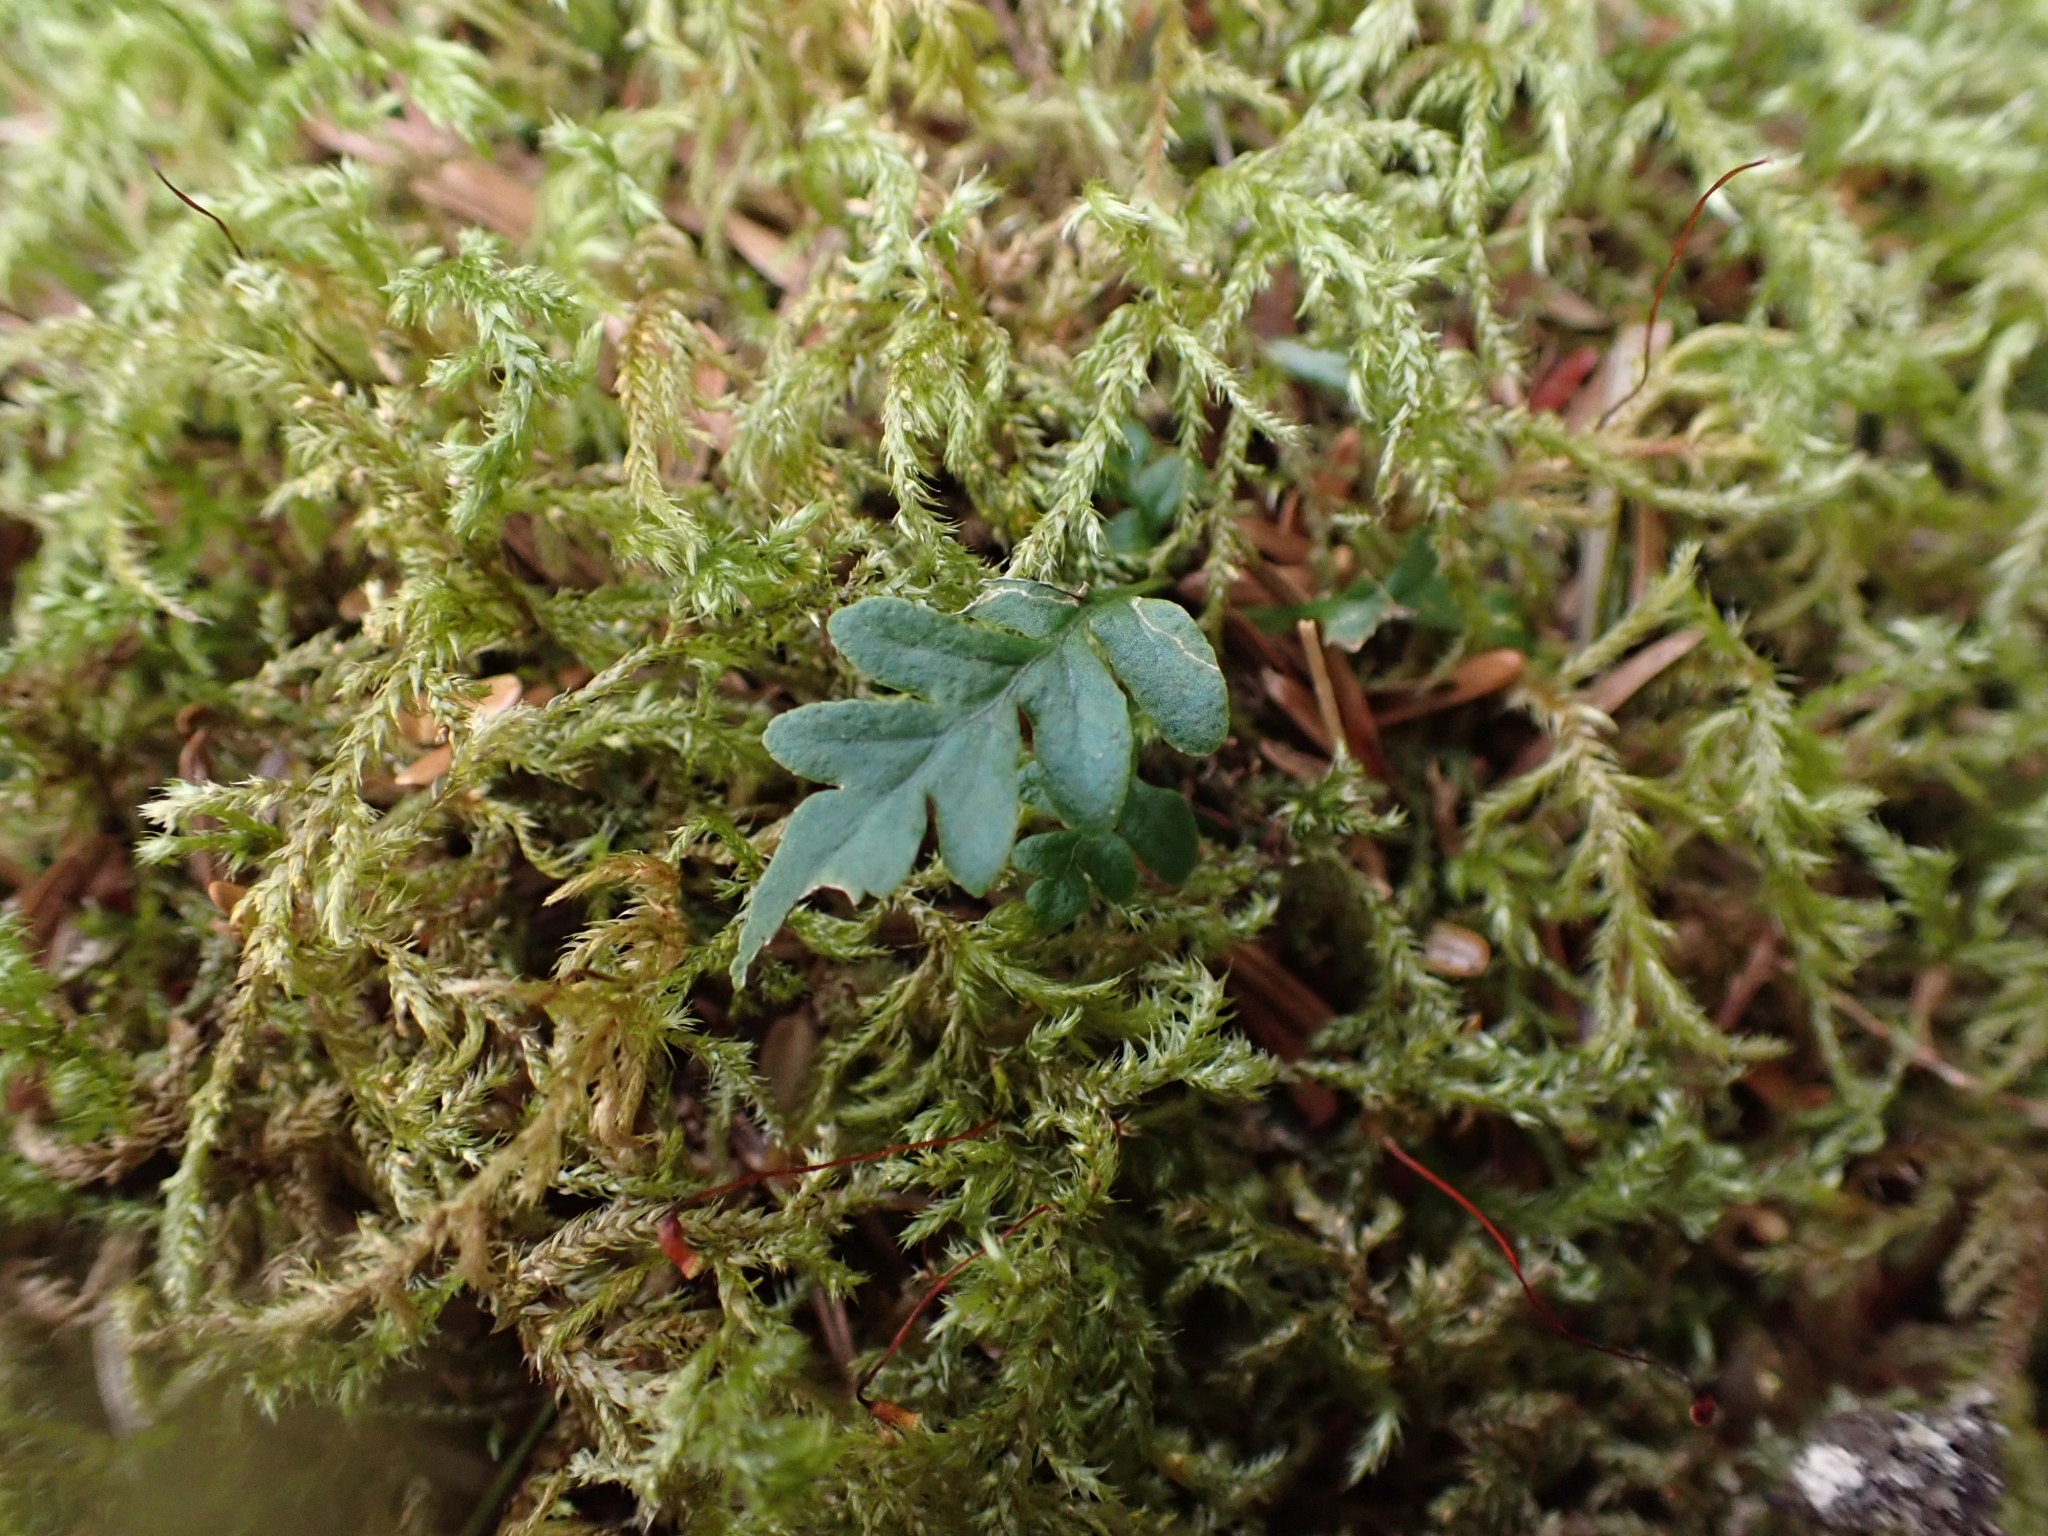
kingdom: Plantae
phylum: Tracheophyta
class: Polypodiopsida
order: Polypodiales
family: Polypodiaceae
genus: Polypodium
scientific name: Polypodium glycyrrhiza
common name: Licorice fern
